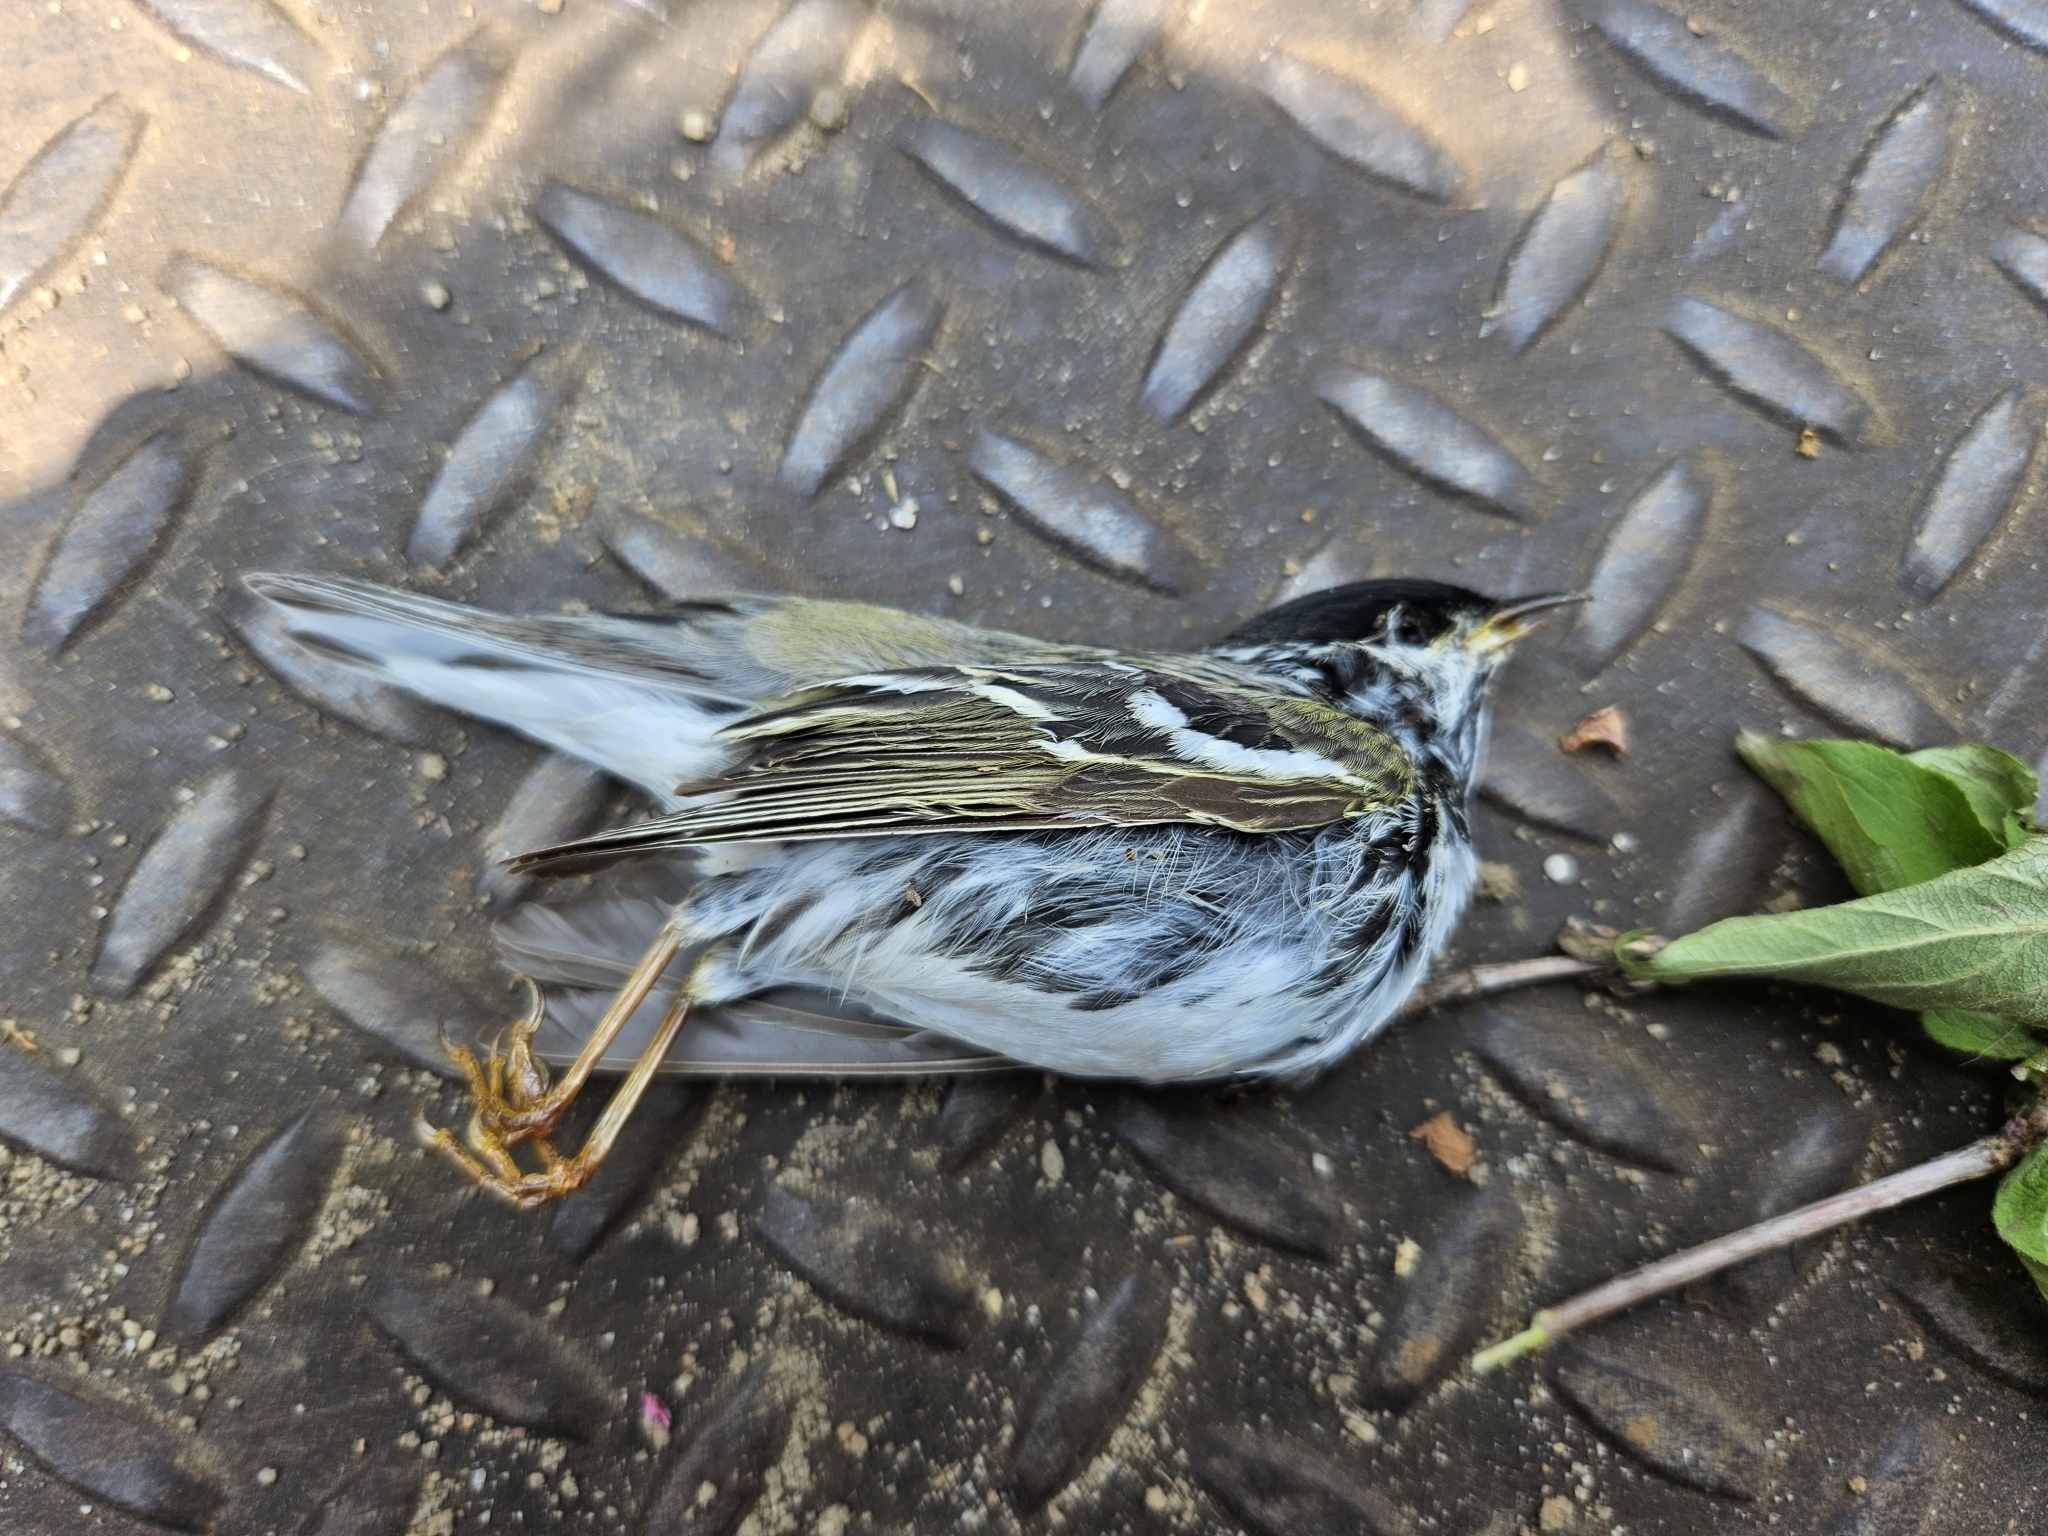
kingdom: Animalia
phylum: Chordata
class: Aves
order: Passeriformes
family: Parulidae
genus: Setophaga
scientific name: Setophaga striata
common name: Blackpoll warbler
